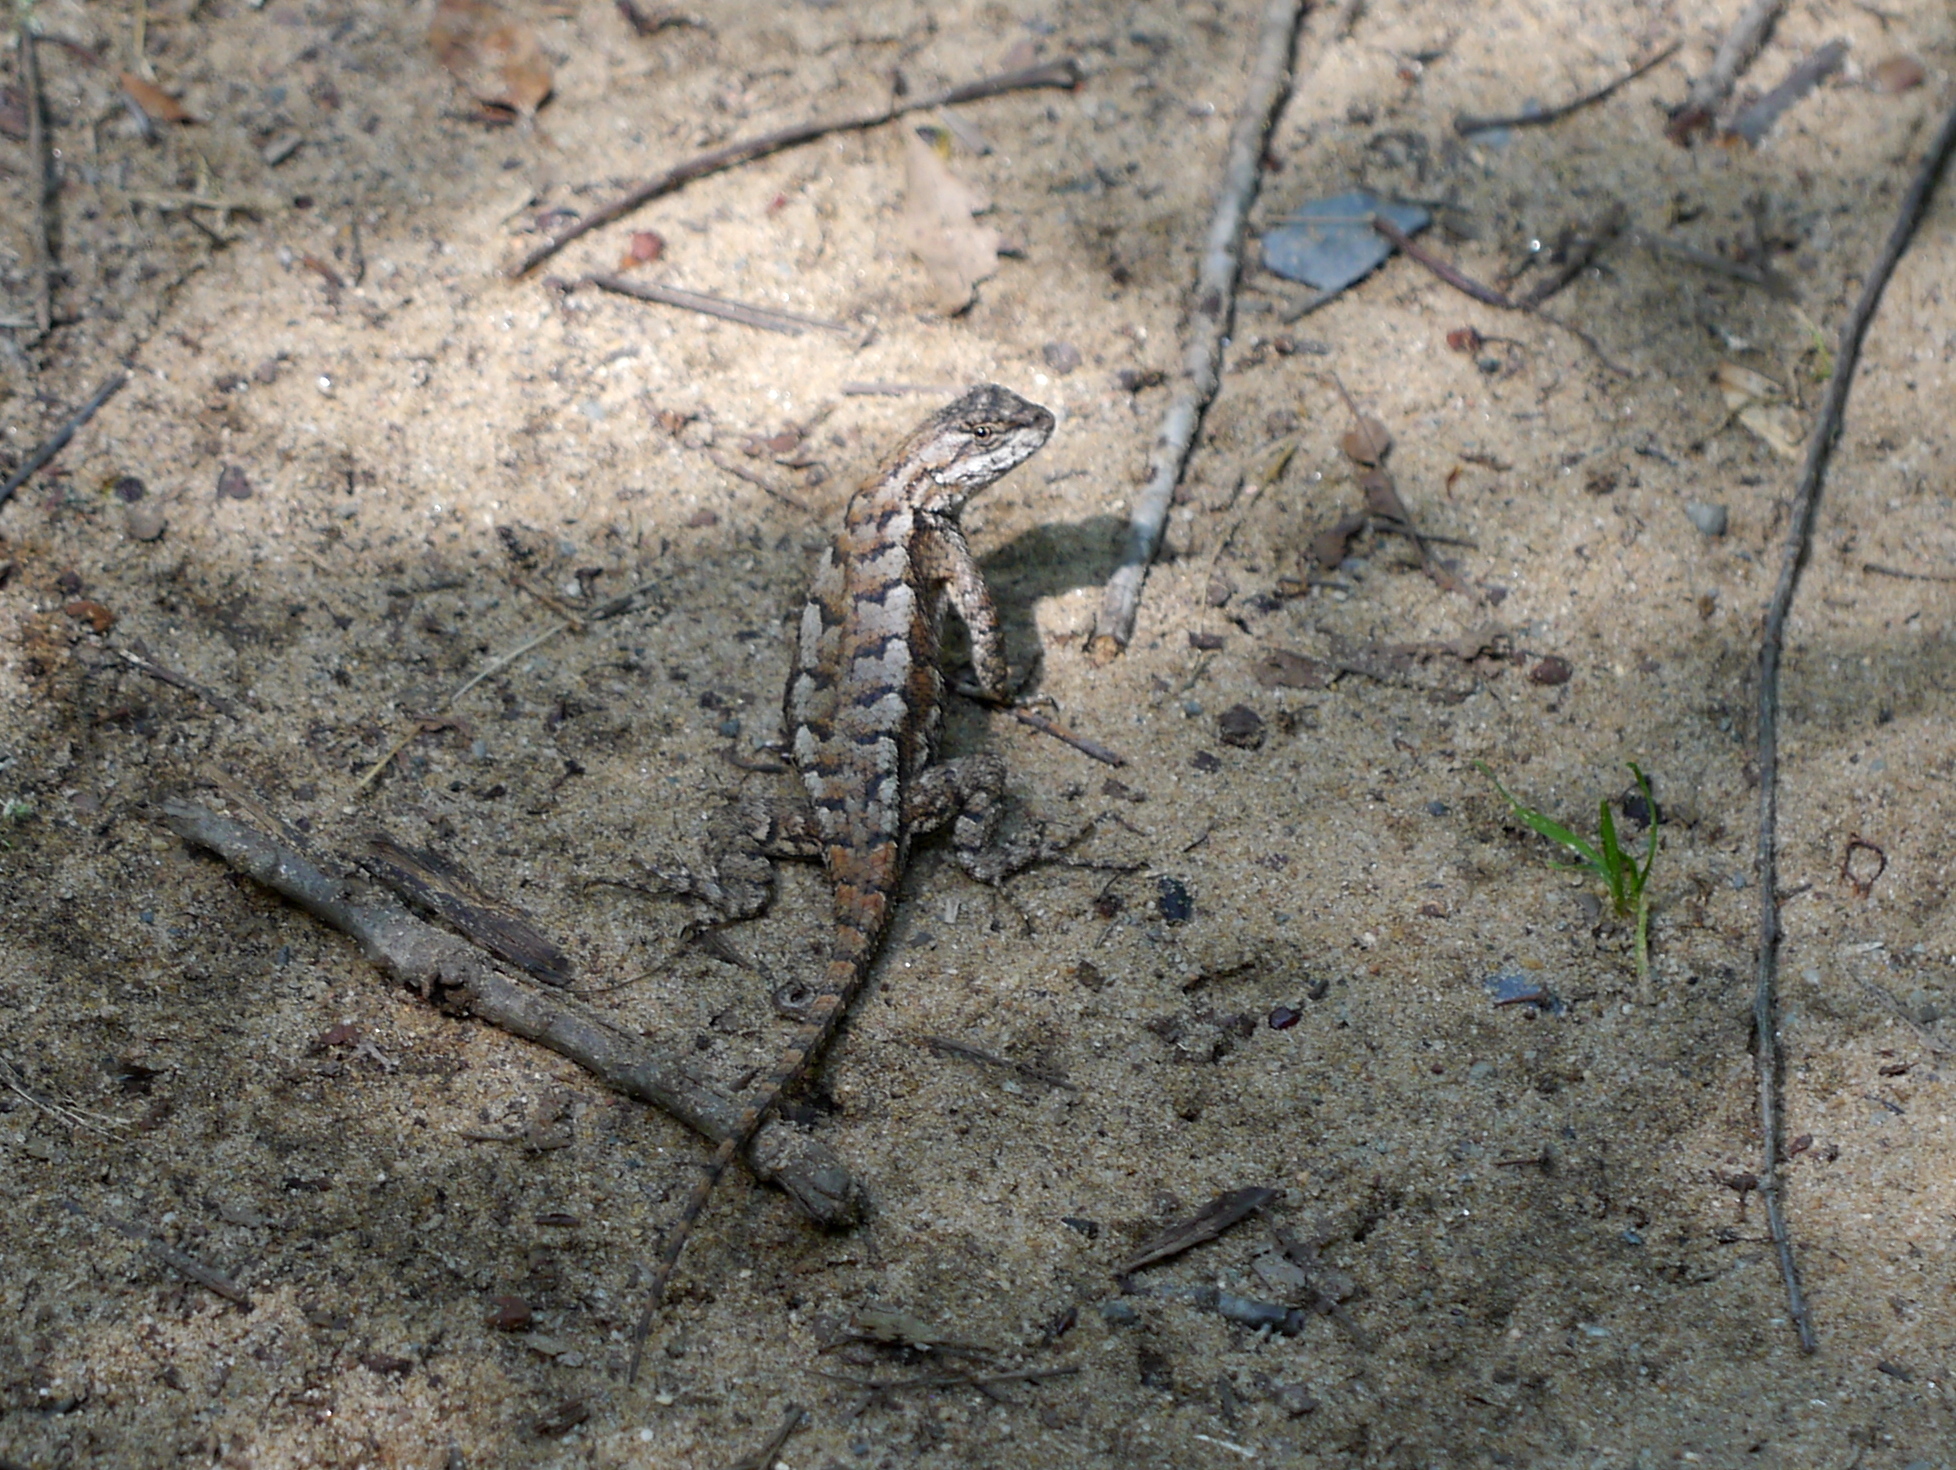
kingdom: Animalia
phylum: Chordata
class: Squamata
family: Phrynosomatidae
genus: Sceloporus
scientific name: Sceloporus undulatus
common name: Eastern fence lizard
